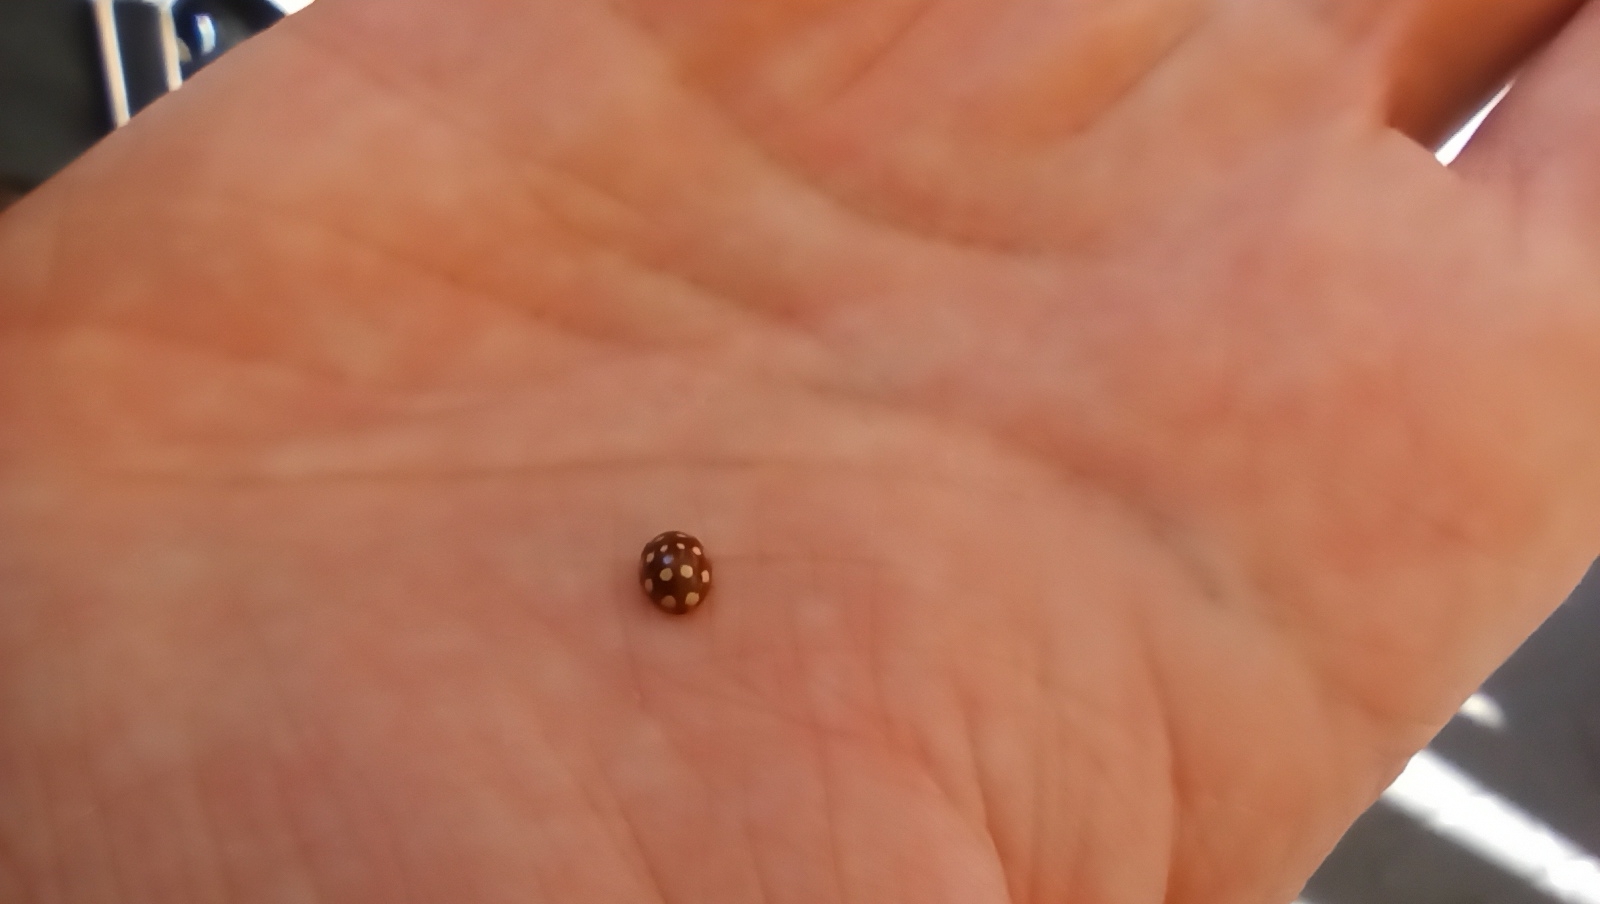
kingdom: Animalia
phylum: Arthropoda
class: Insecta
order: Coleoptera
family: Coccinellidae
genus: Calvia
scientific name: Calvia quatuordecimguttata
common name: Cream-spot ladybird
